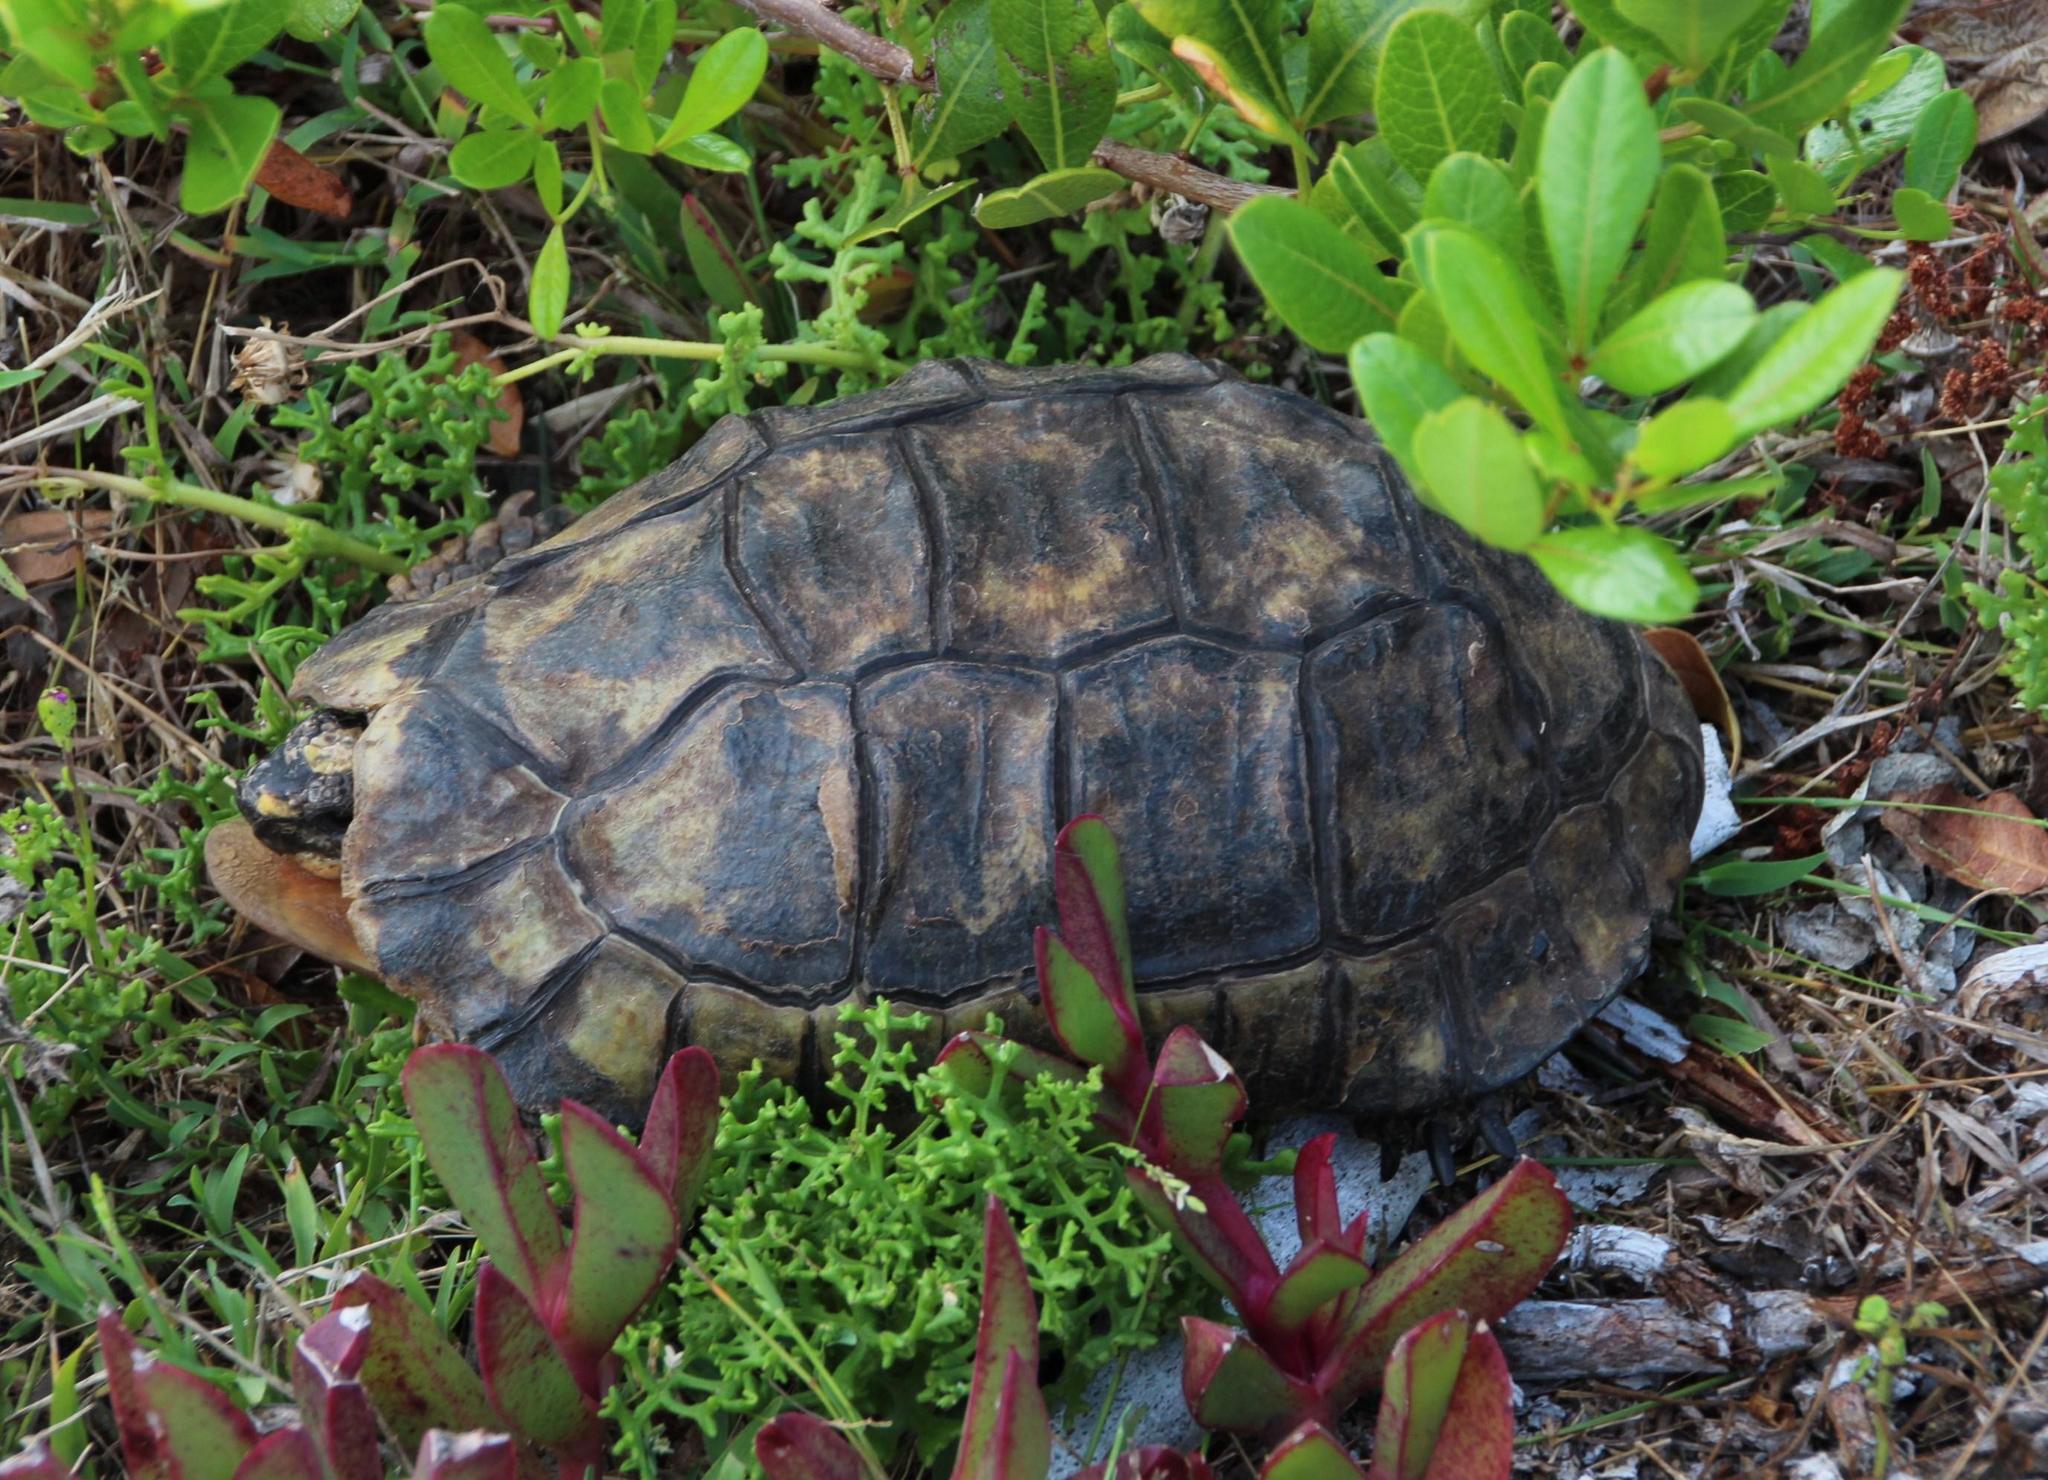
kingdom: Animalia
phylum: Chordata
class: Testudines
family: Testudinidae
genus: Chersina
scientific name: Chersina angulata
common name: South african bowsprit tortoise
